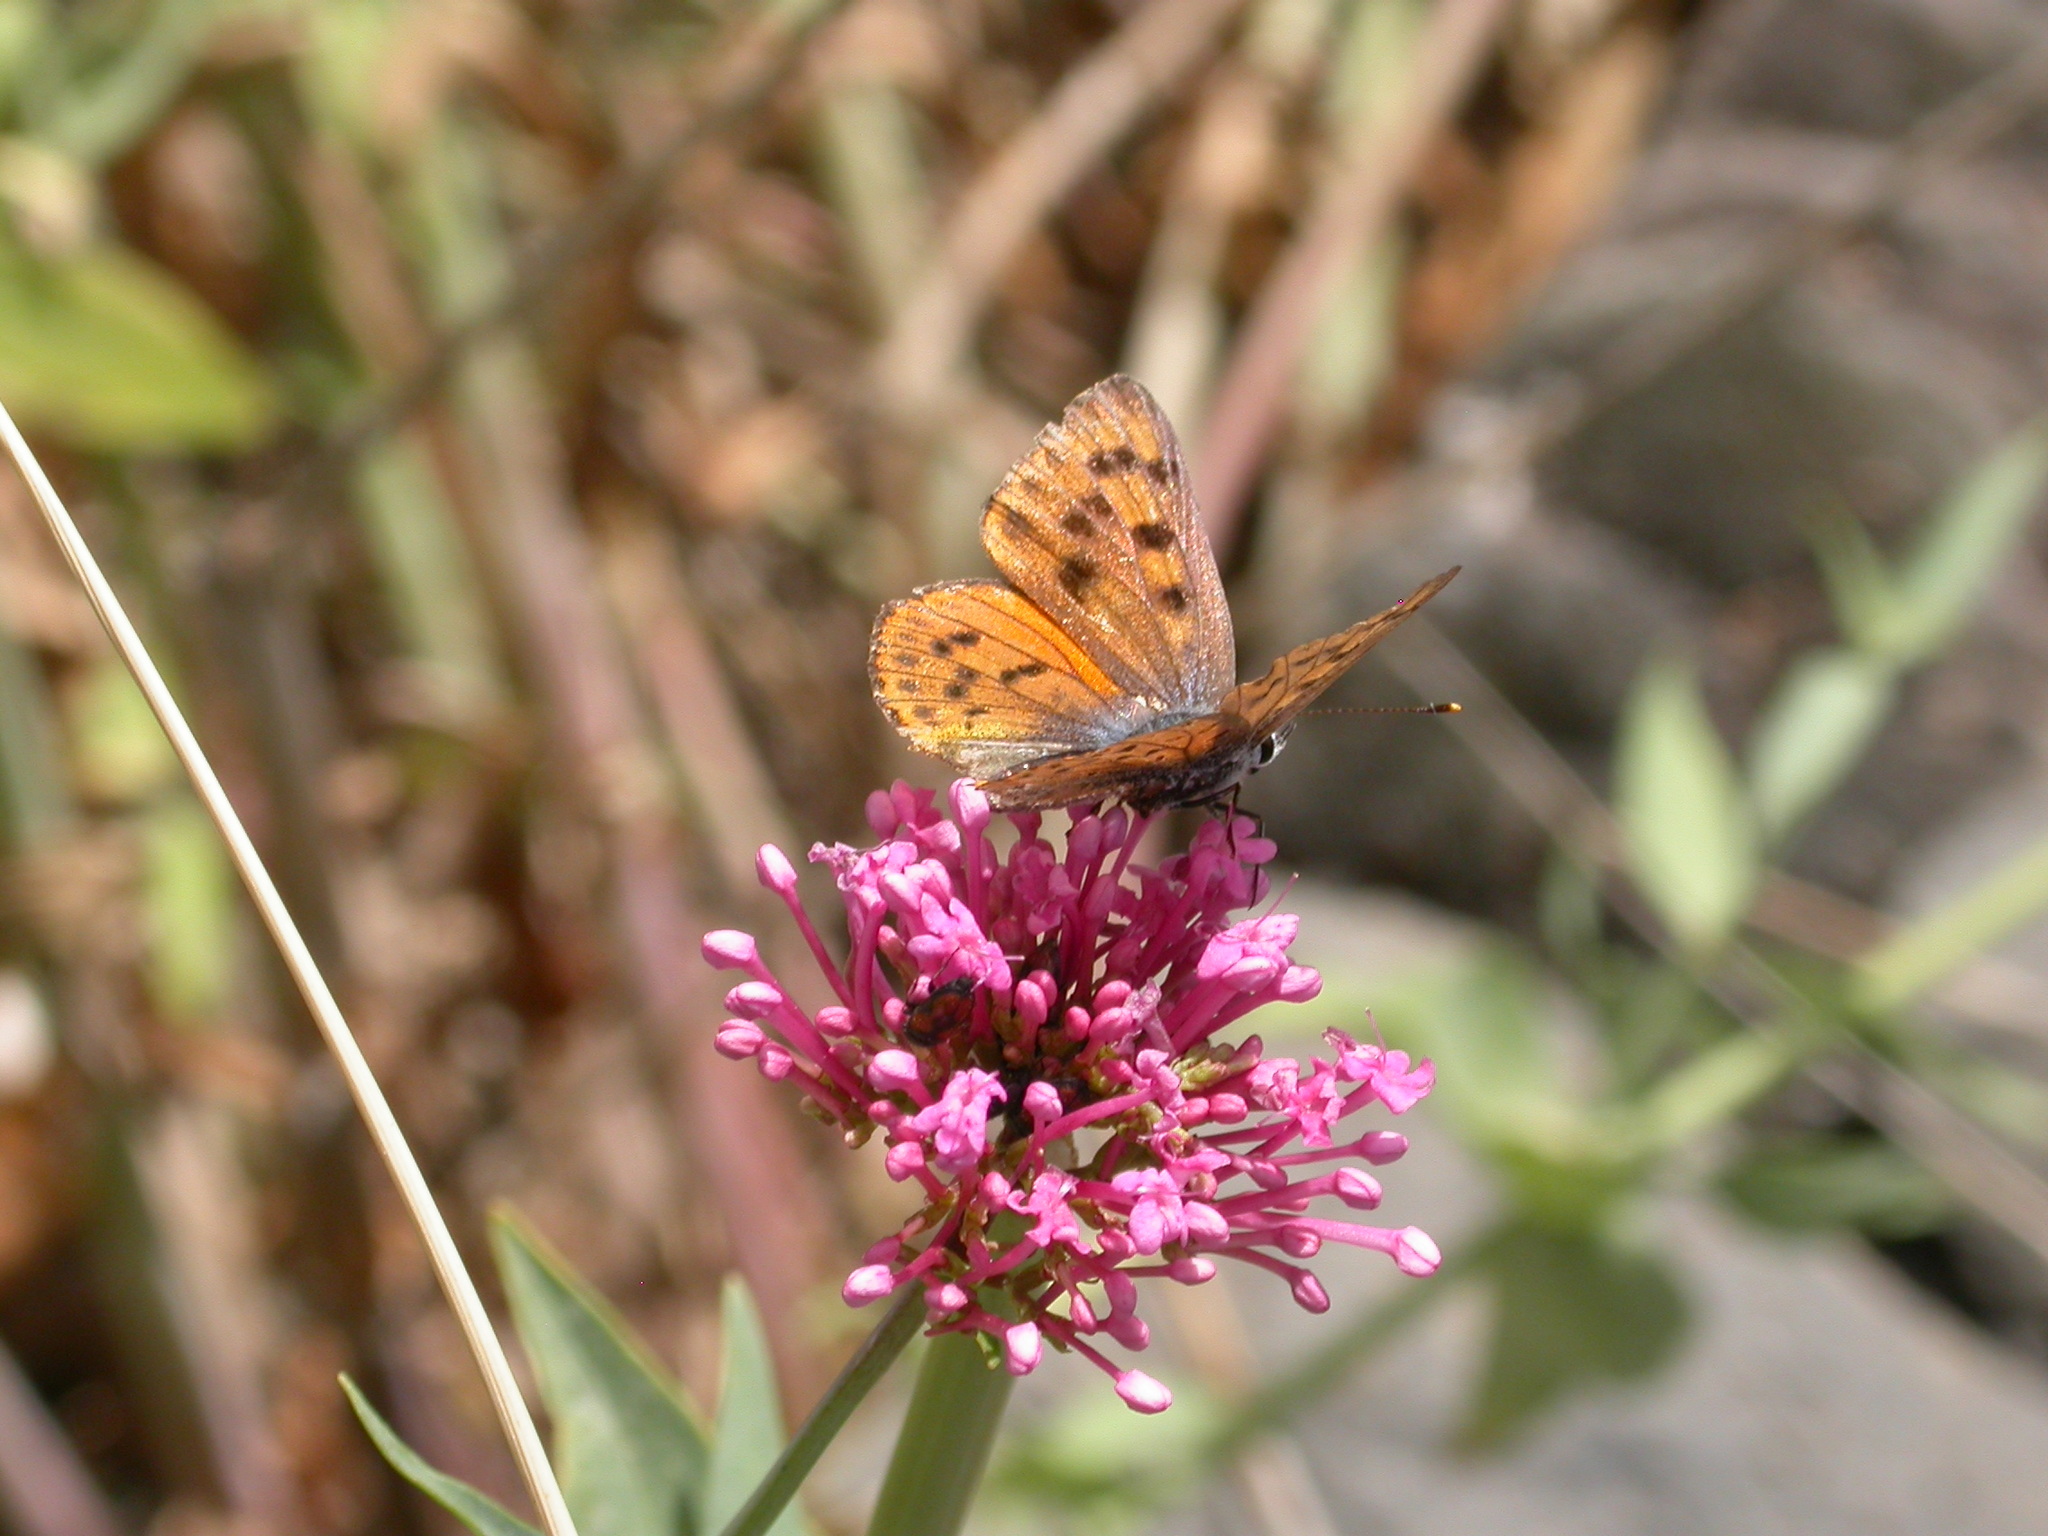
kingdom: Animalia
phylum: Arthropoda
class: Insecta
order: Lepidoptera
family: Lycaenidae
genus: Lycaena
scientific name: Lycaena alciphron
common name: Purple-shot copper
